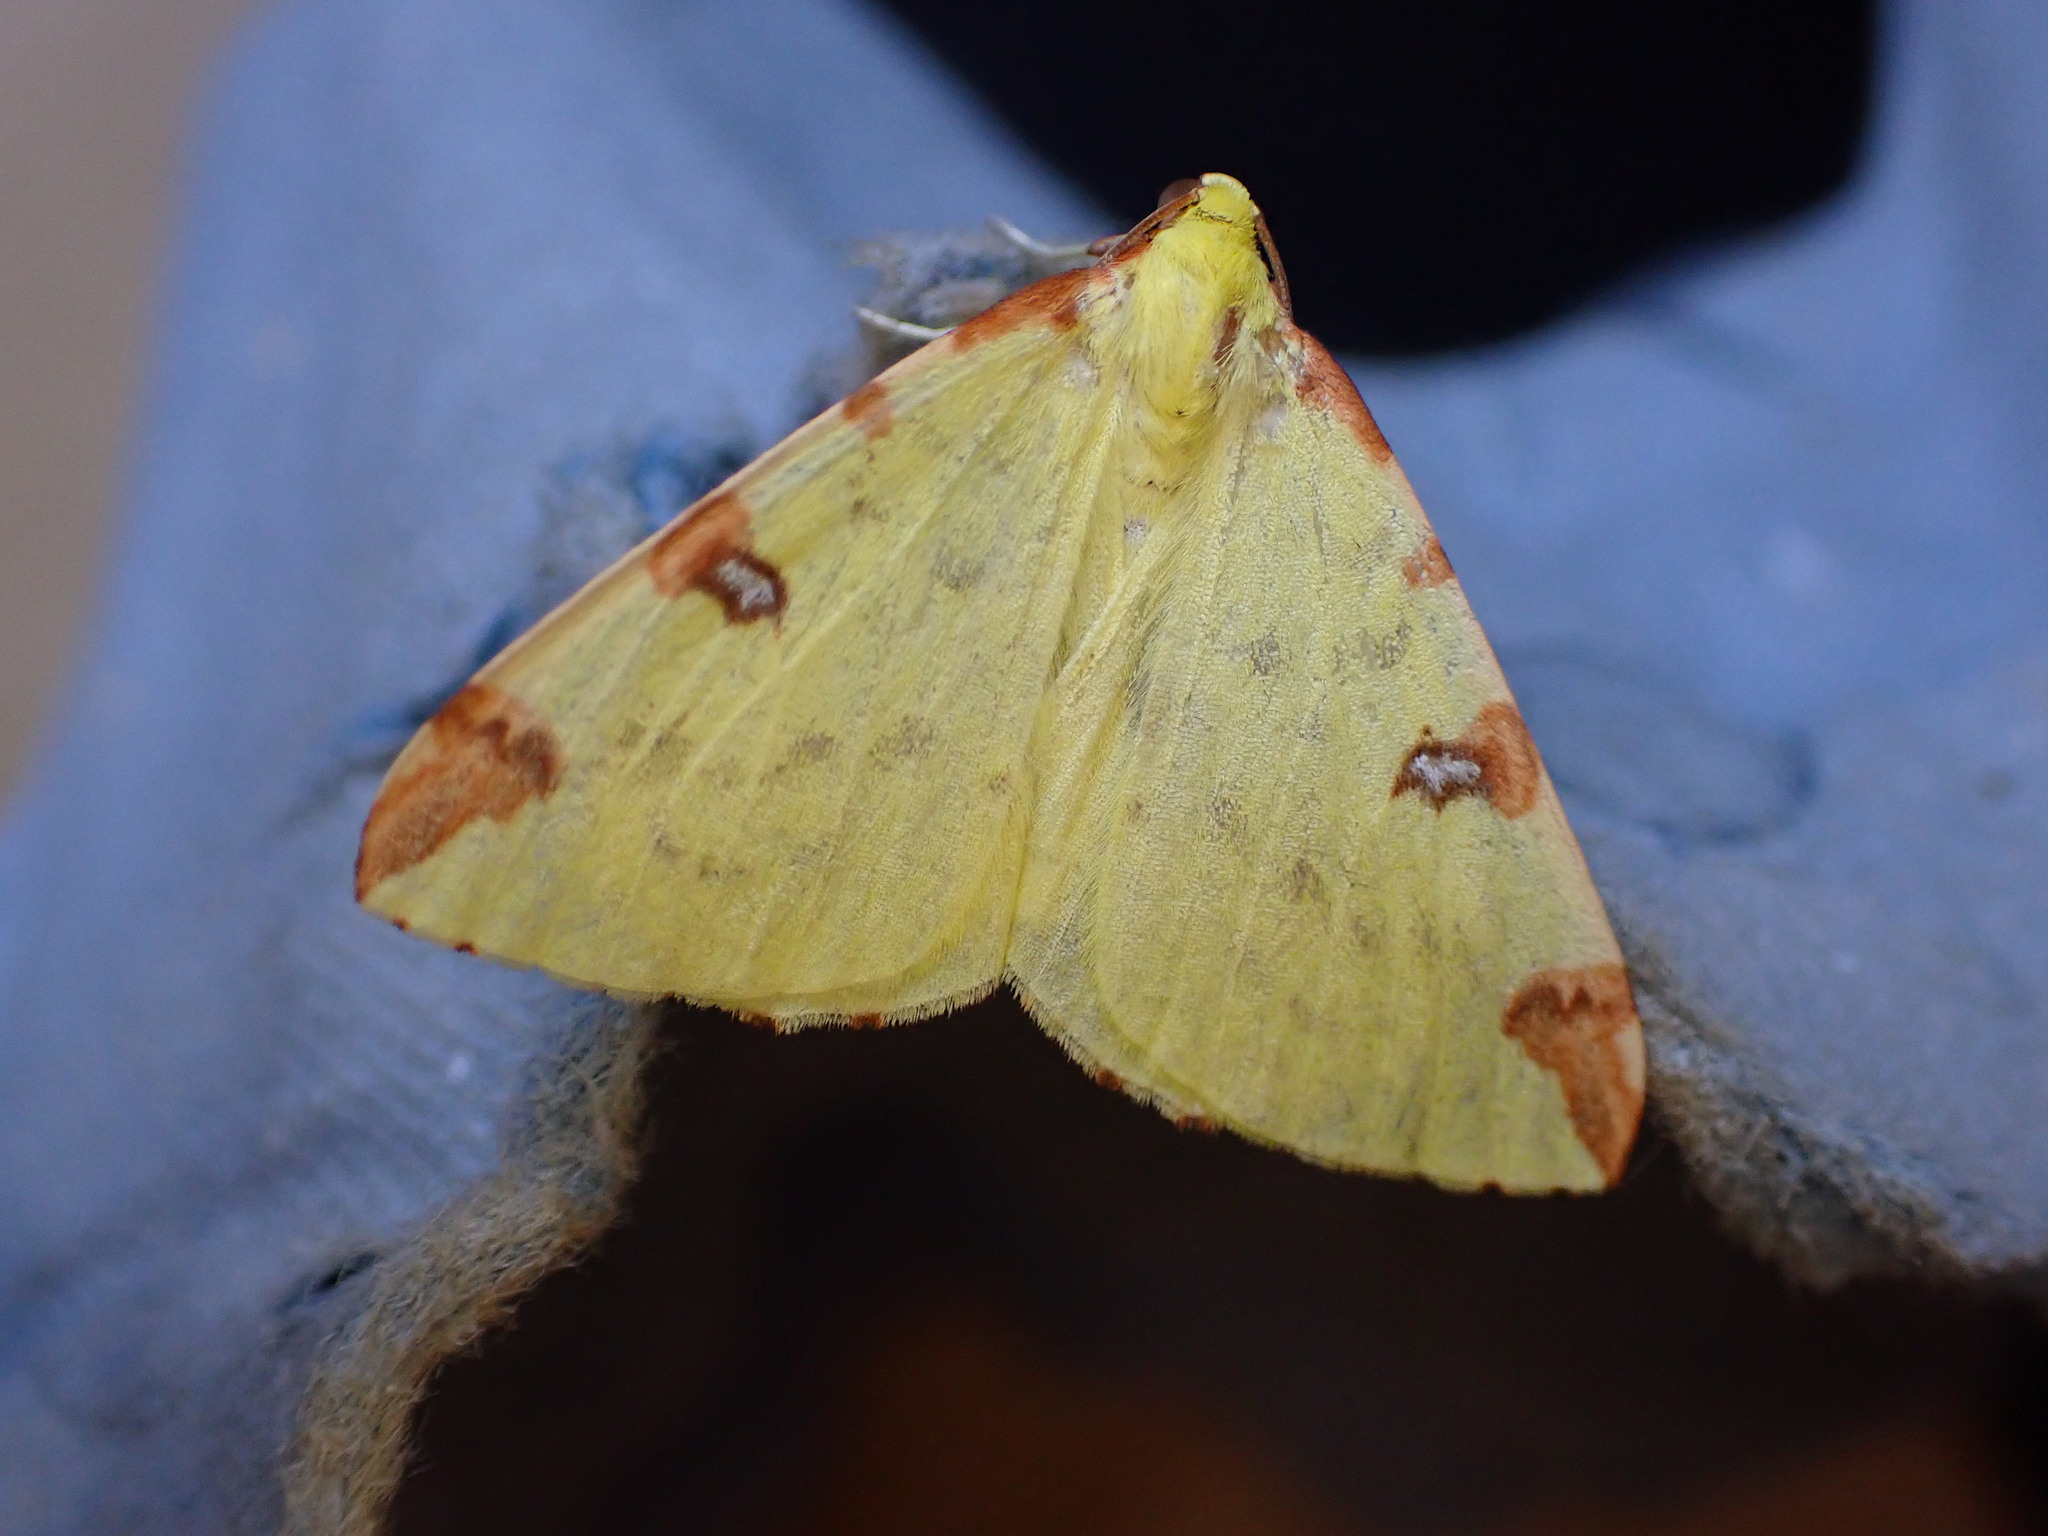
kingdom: Animalia
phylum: Arthropoda
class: Insecta
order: Lepidoptera
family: Geometridae
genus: Opisthograptis
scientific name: Opisthograptis luteolata
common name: Brimstone moth
